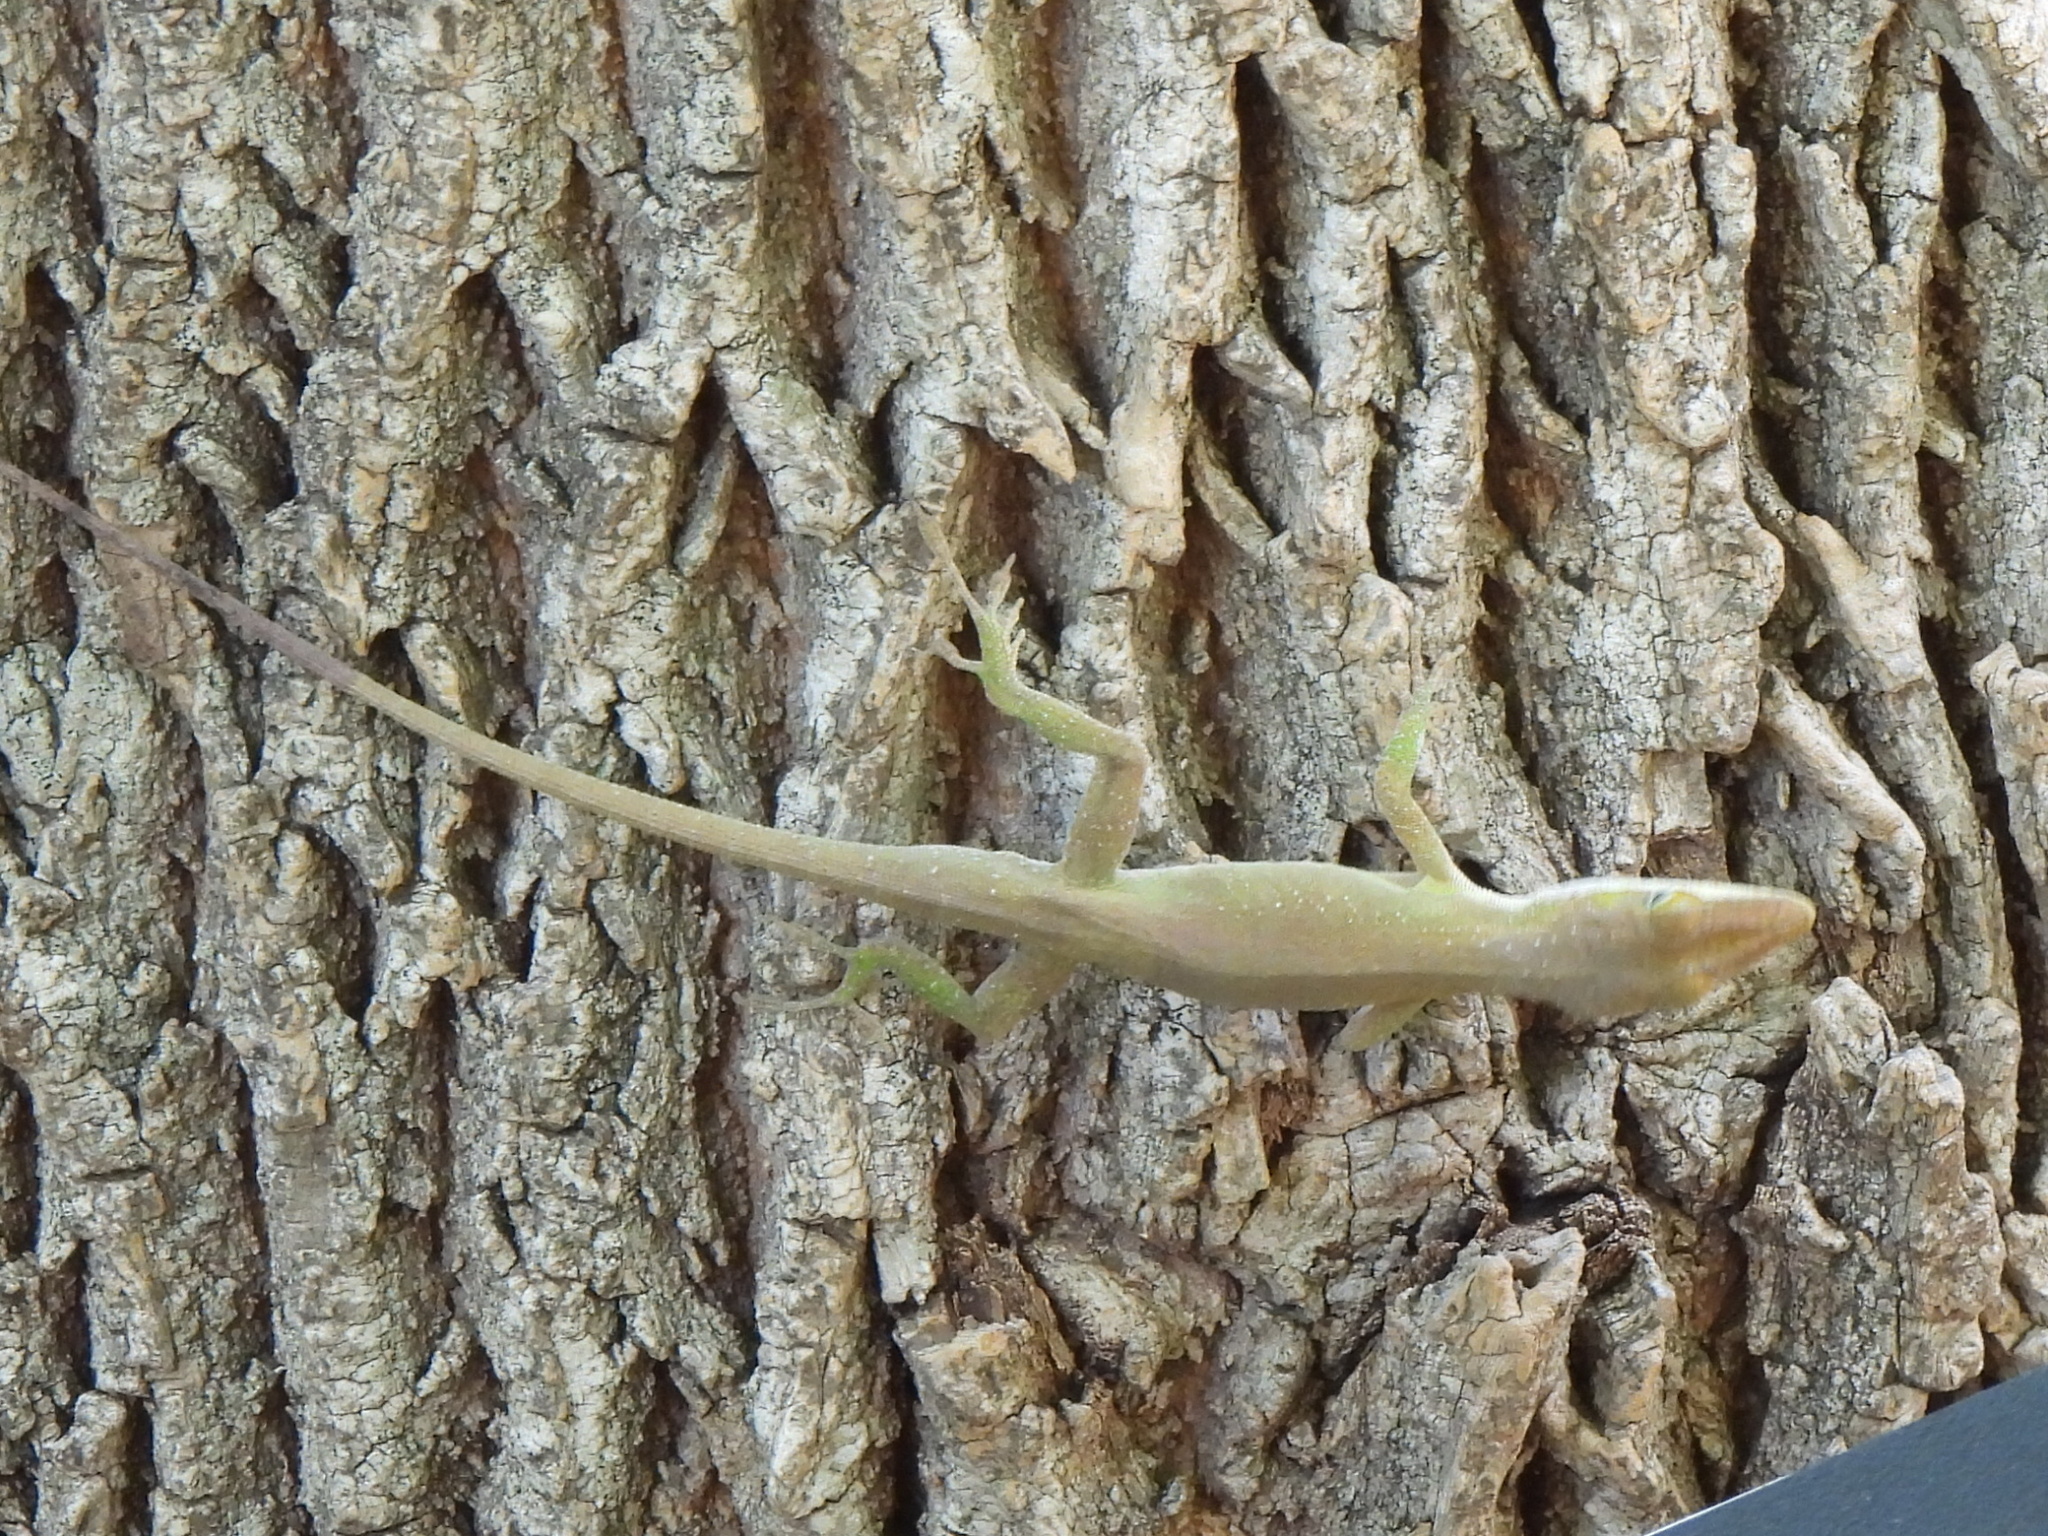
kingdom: Animalia
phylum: Chordata
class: Squamata
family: Dactyloidae
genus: Anolis
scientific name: Anolis carolinensis
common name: Green anole
